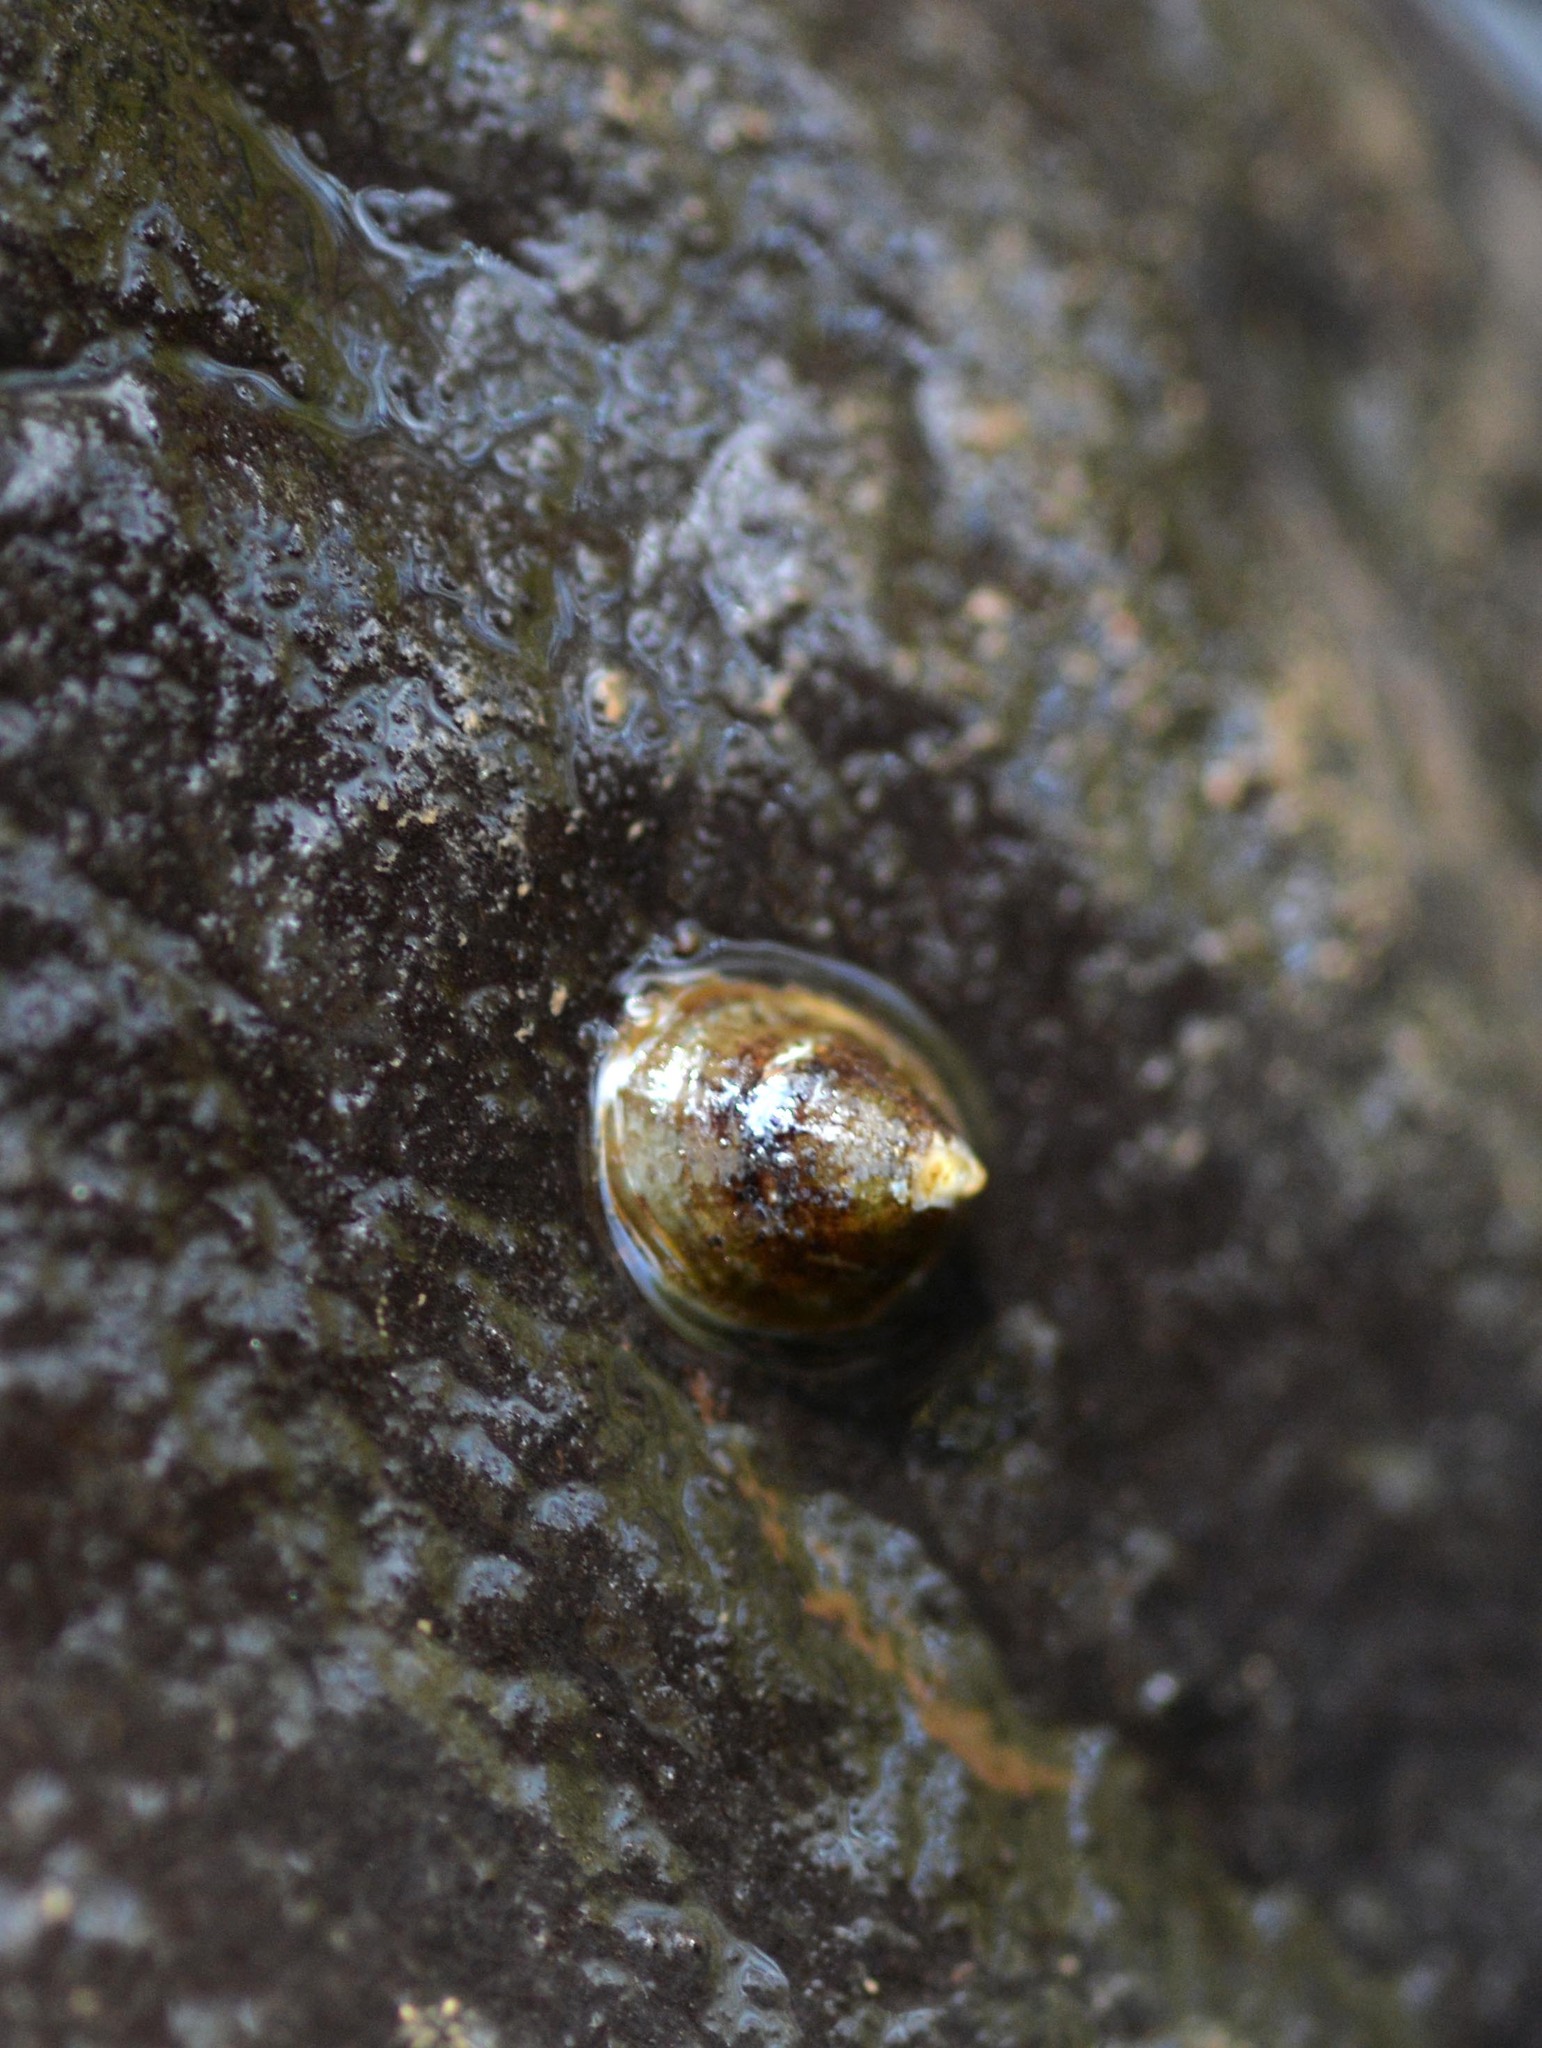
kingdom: Animalia
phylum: Mollusca
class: Gastropoda
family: Planorbidae
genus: Ancylus
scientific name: Ancylus fluviatilis
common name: River limpet
